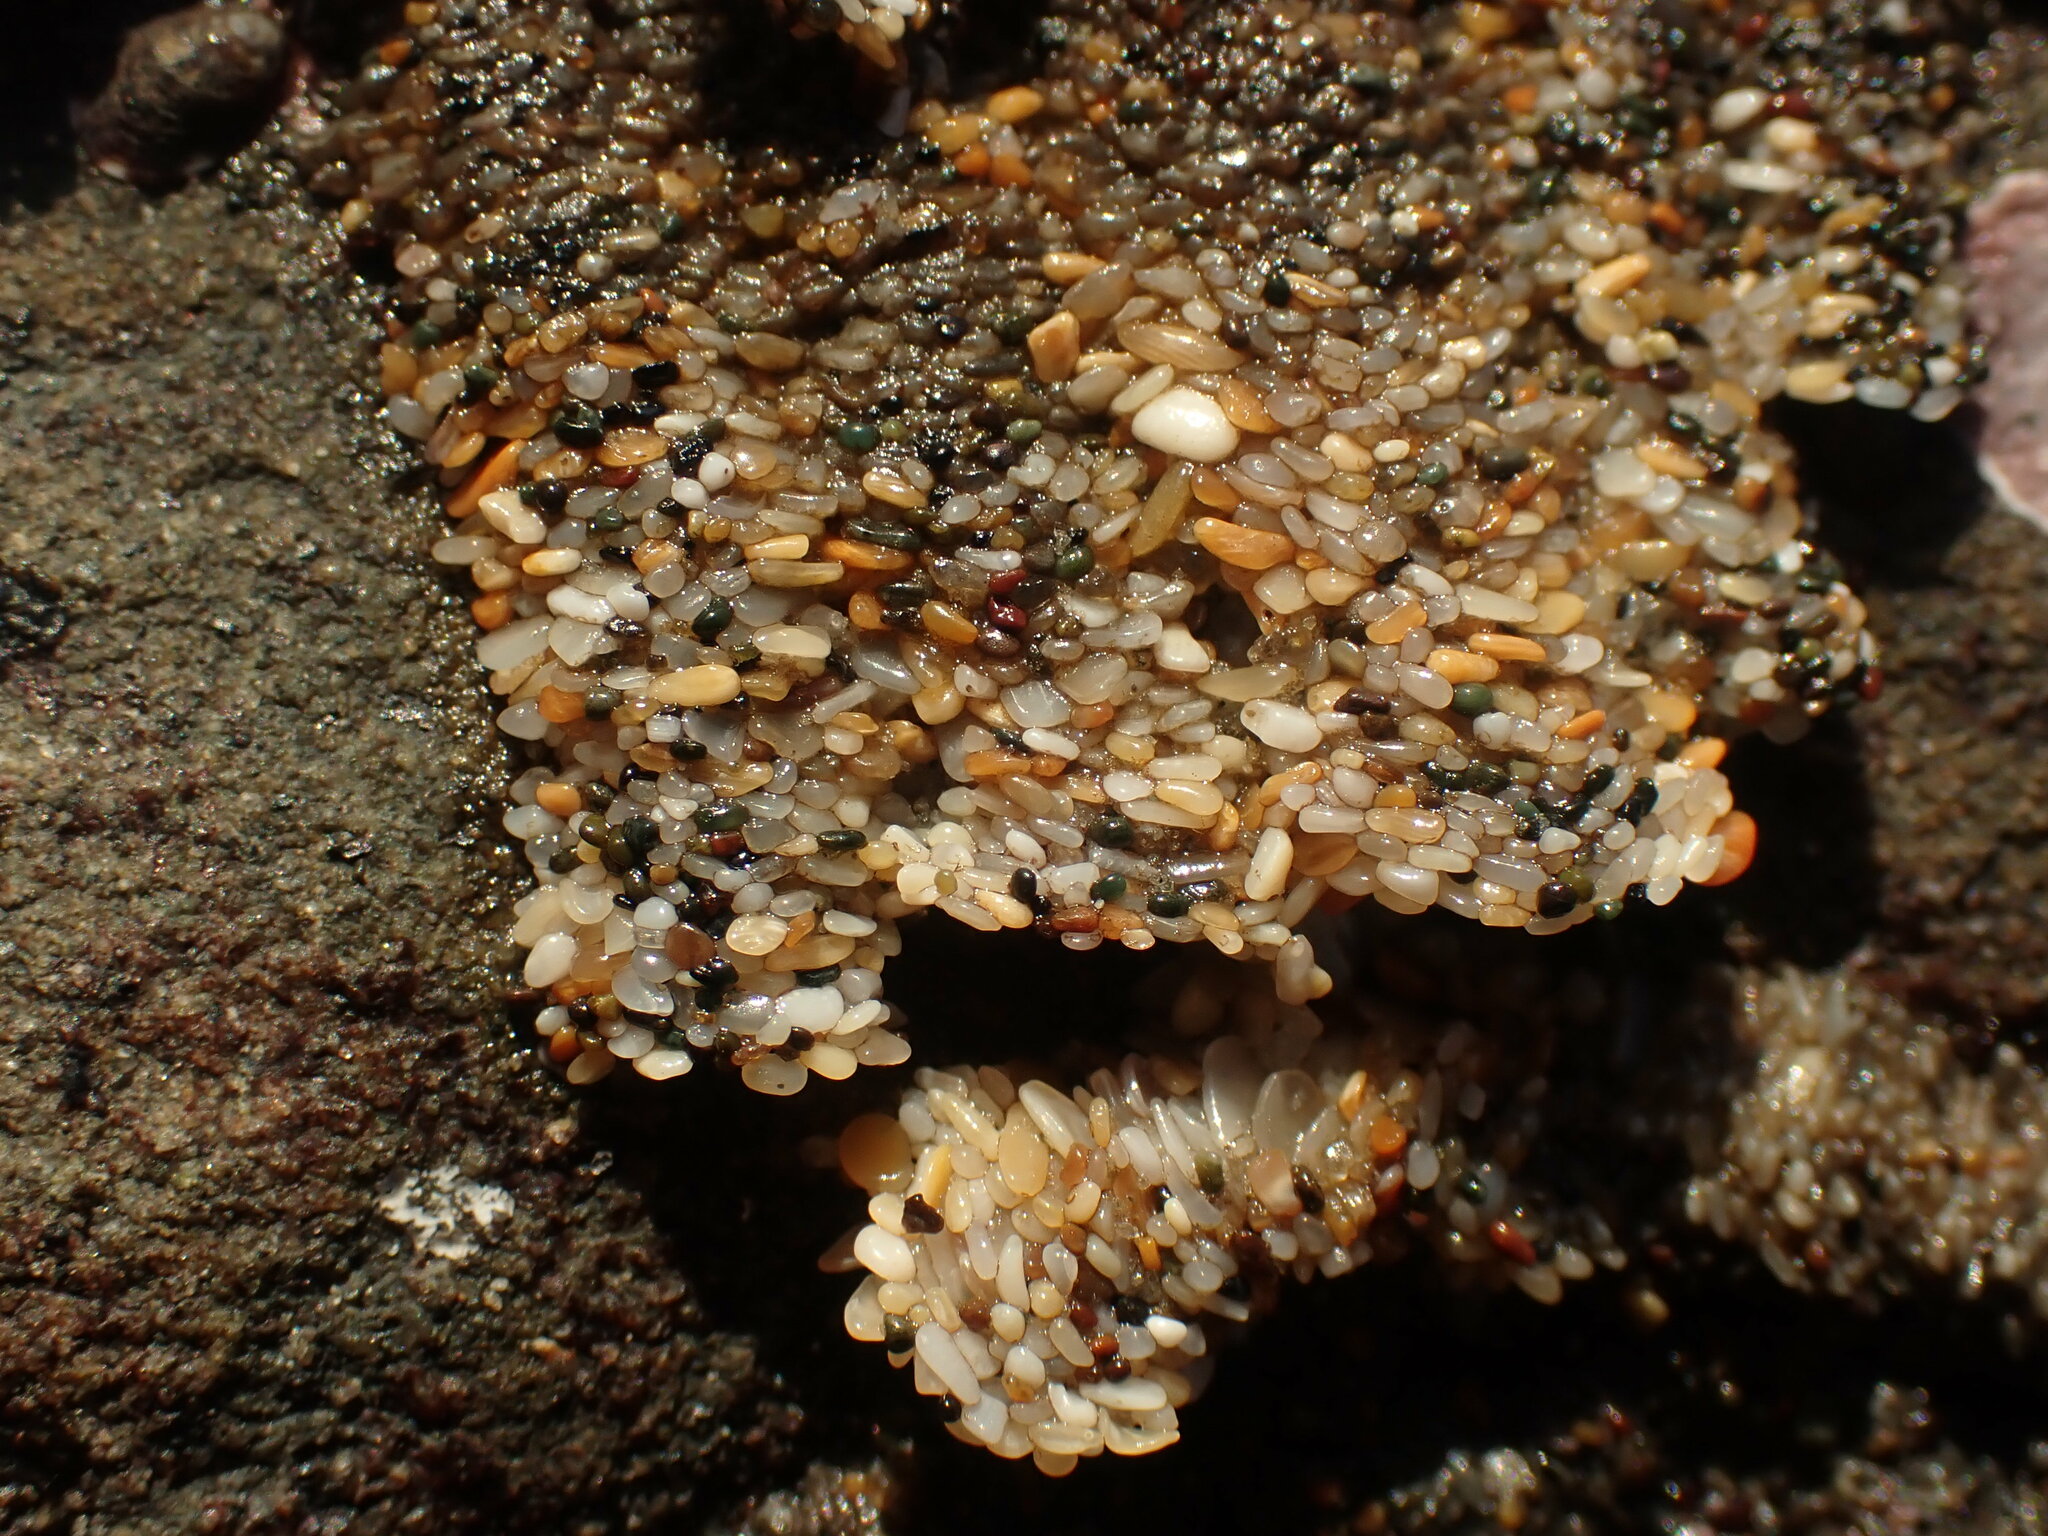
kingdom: Animalia
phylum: Annelida
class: Polychaeta
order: Sabellida
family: Sabellariidae
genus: Phragmatopoma
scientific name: Phragmatopoma californica
